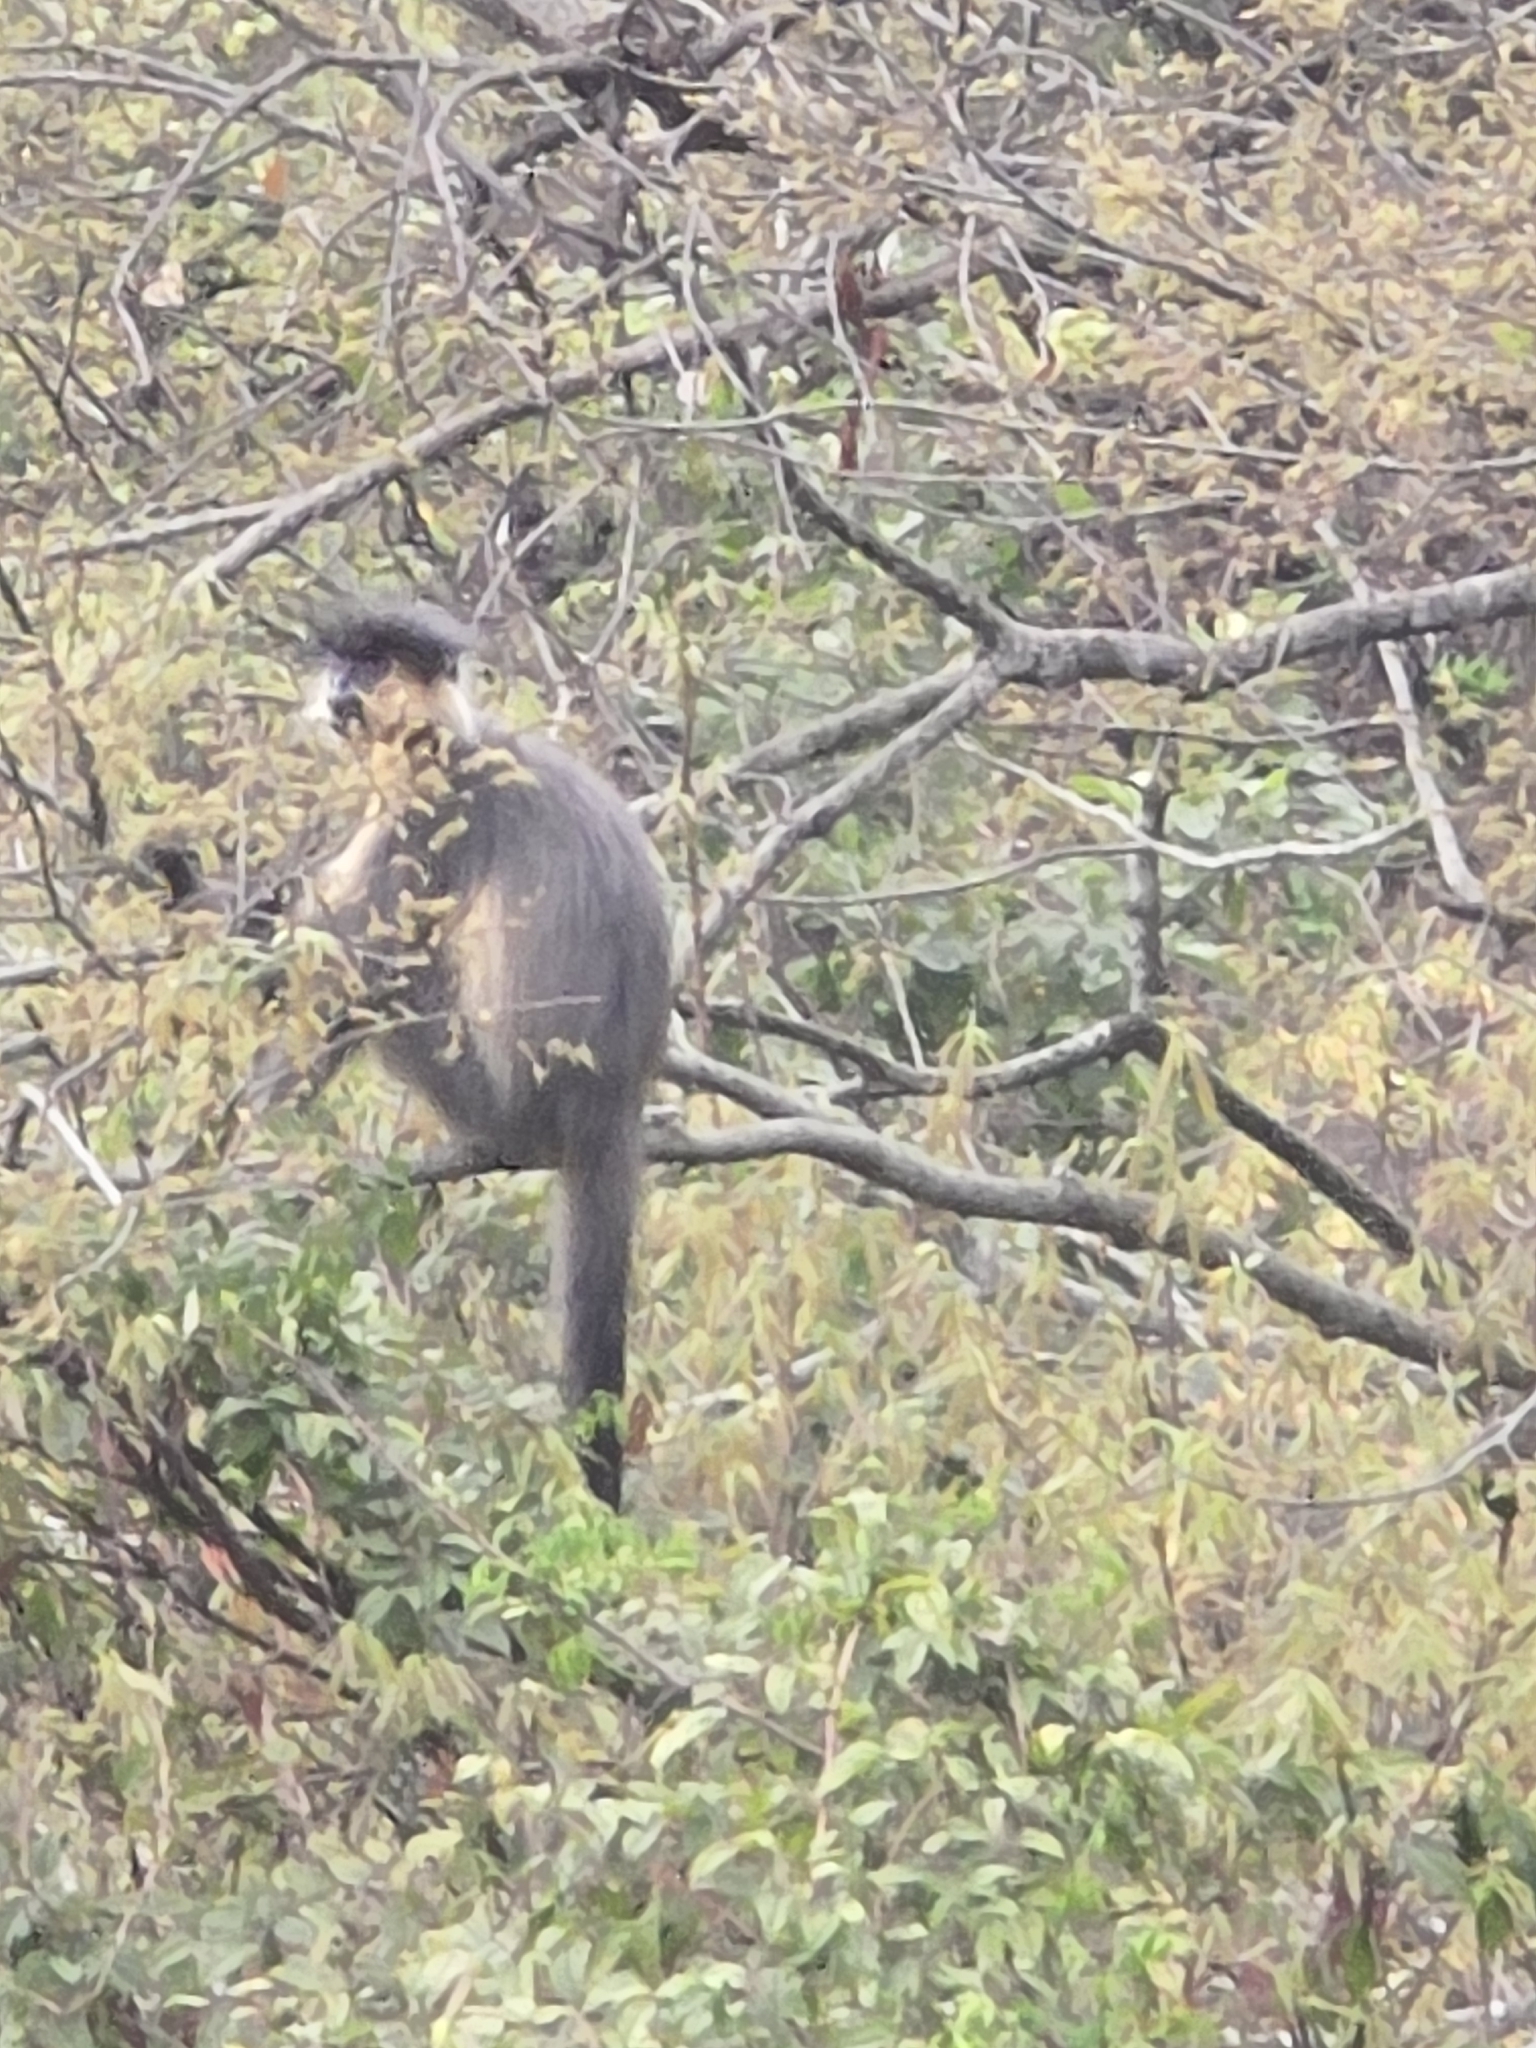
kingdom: Animalia
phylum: Chordata
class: Mammalia
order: Primates
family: Cercopithecidae
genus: Trachypithecus
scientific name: Trachypithecus pileatus
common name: Capped langur
